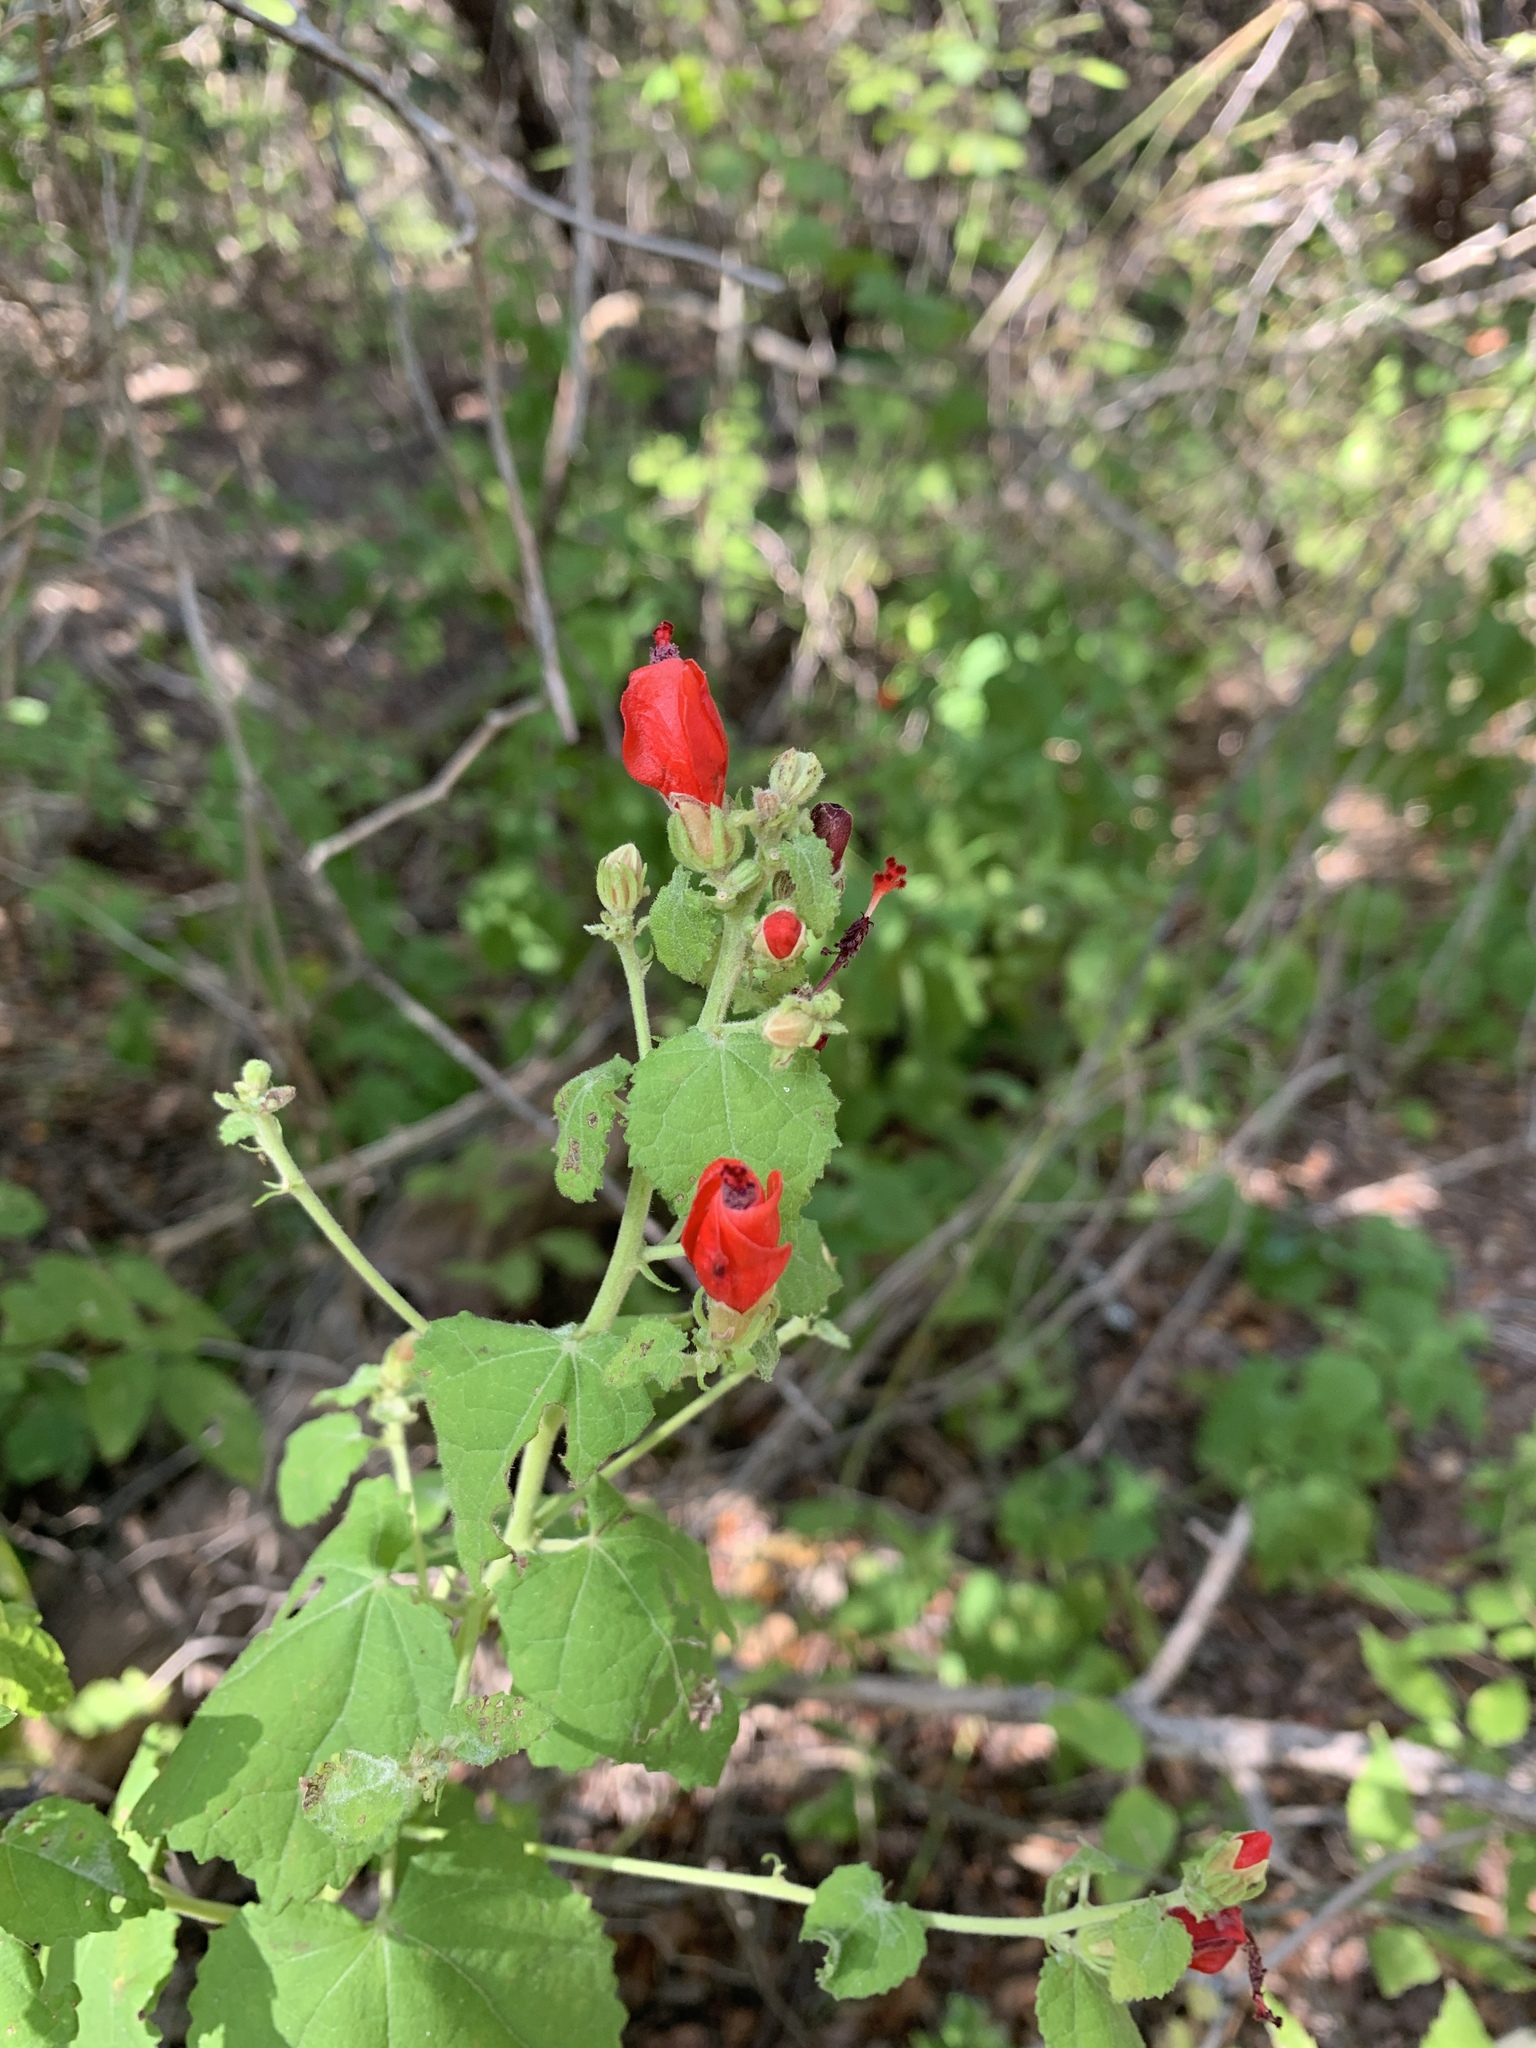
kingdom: Plantae
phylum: Tracheophyta
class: Magnoliopsida
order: Malvales
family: Malvaceae
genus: Malvaviscus
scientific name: Malvaviscus arboreus
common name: Wax mallow
